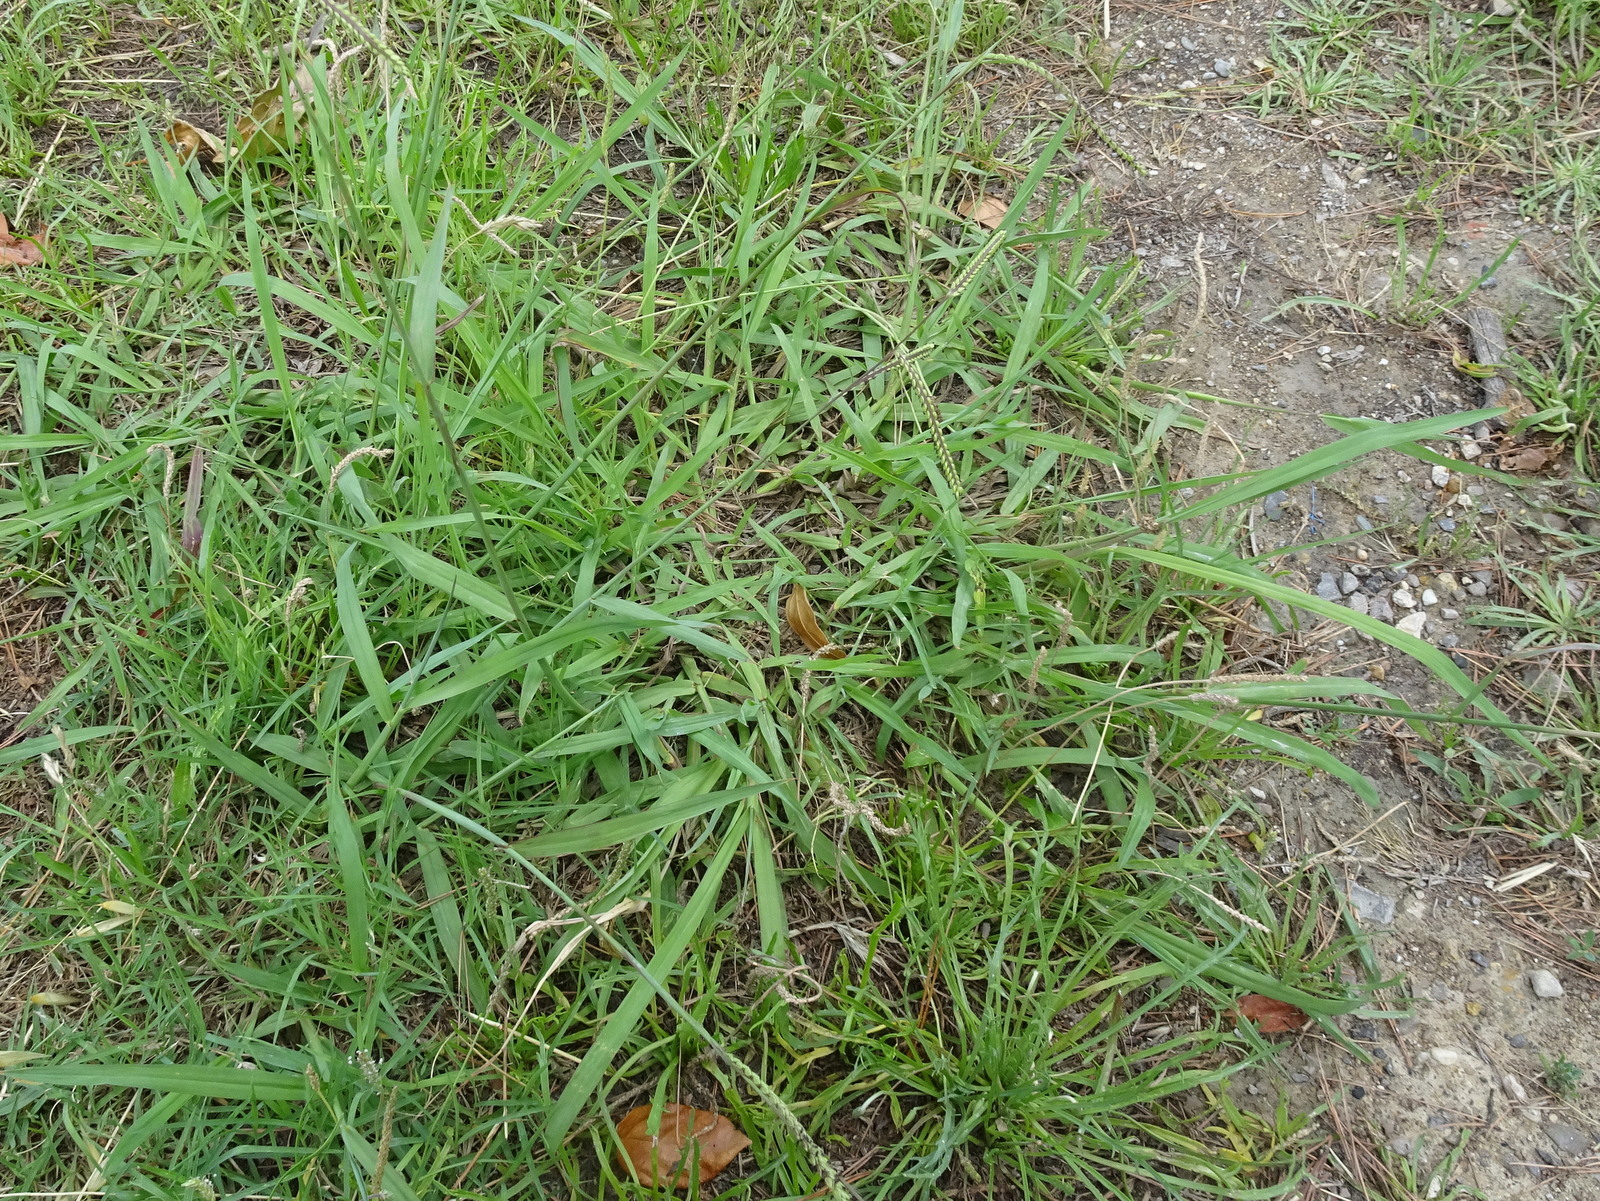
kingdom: Plantae
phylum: Tracheophyta
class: Liliopsida
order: Poales
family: Poaceae
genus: Paspalum
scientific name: Paspalum dilatatum
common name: Dallisgrass
